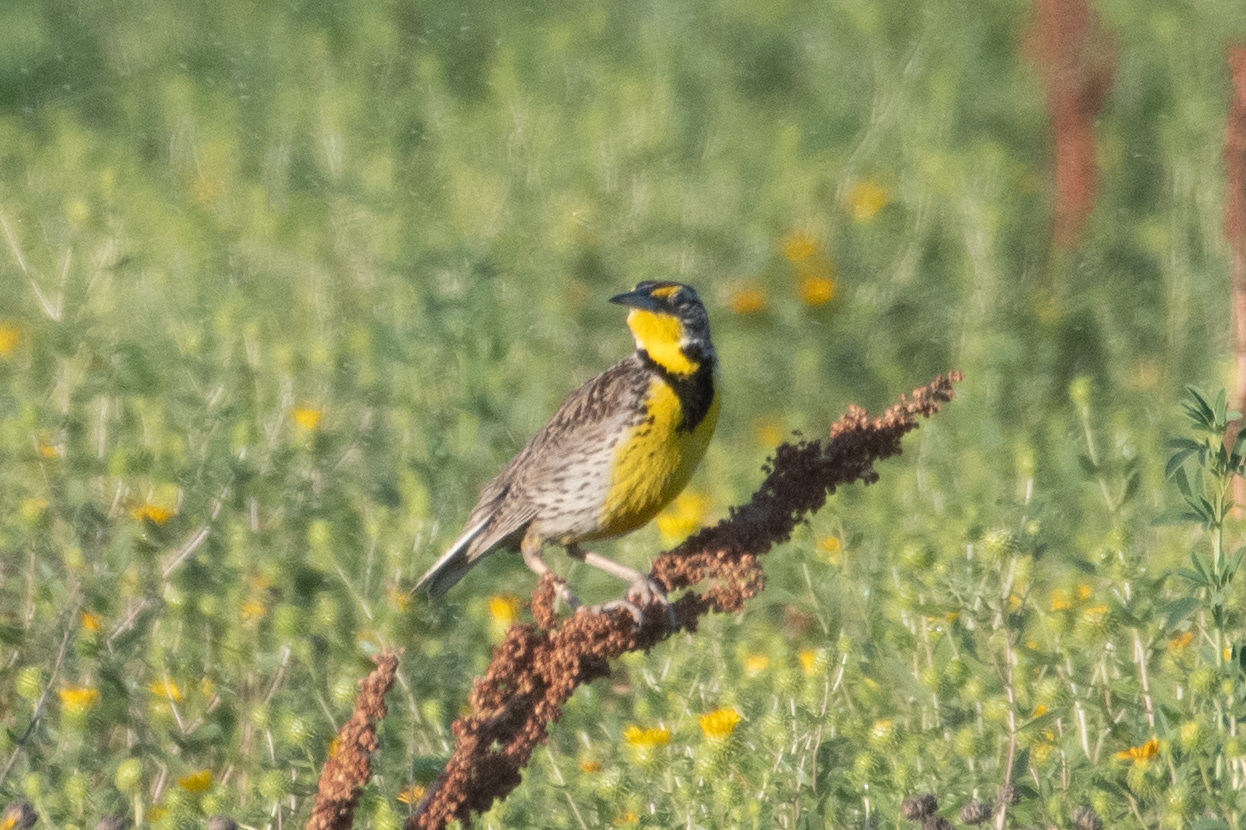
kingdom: Animalia
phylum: Chordata
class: Aves
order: Passeriformes
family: Icteridae
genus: Sturnella
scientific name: Sturnella neglecta
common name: Western meadowlark
